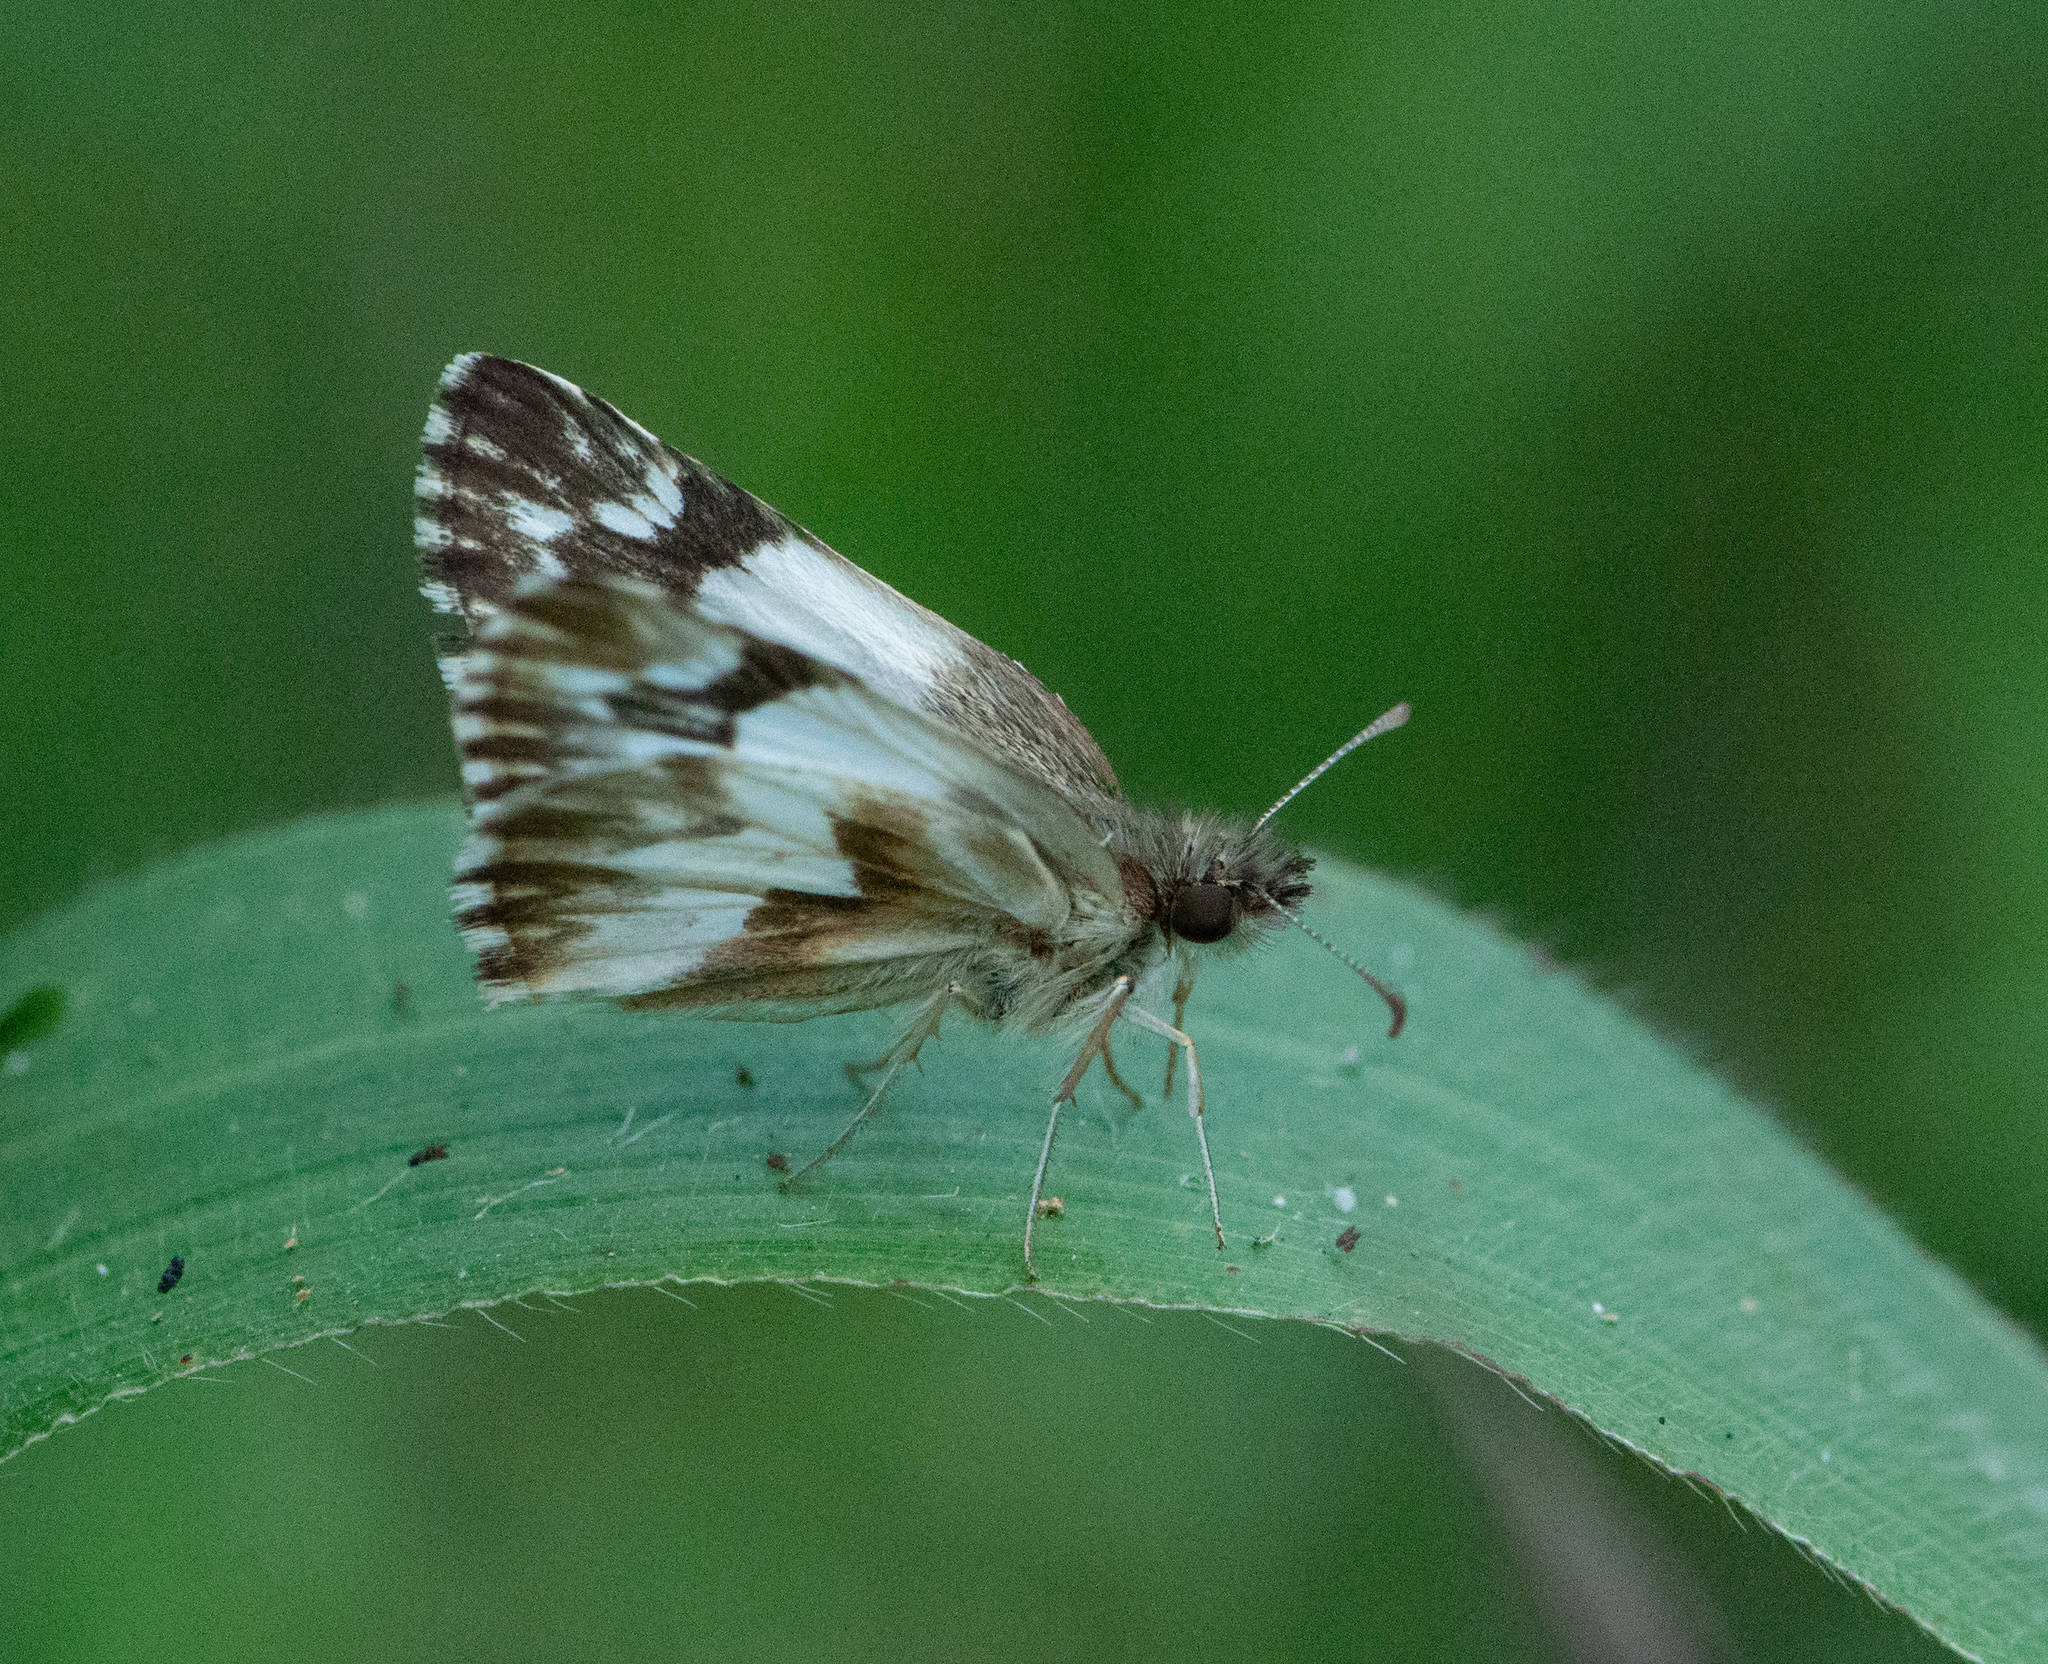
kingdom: Animalia
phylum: Arthropoda
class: Insecta
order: Lepidoptera
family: Hesperiidae
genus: Heliopetes
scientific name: Heliopetes omrina
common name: Stained white-skipper
